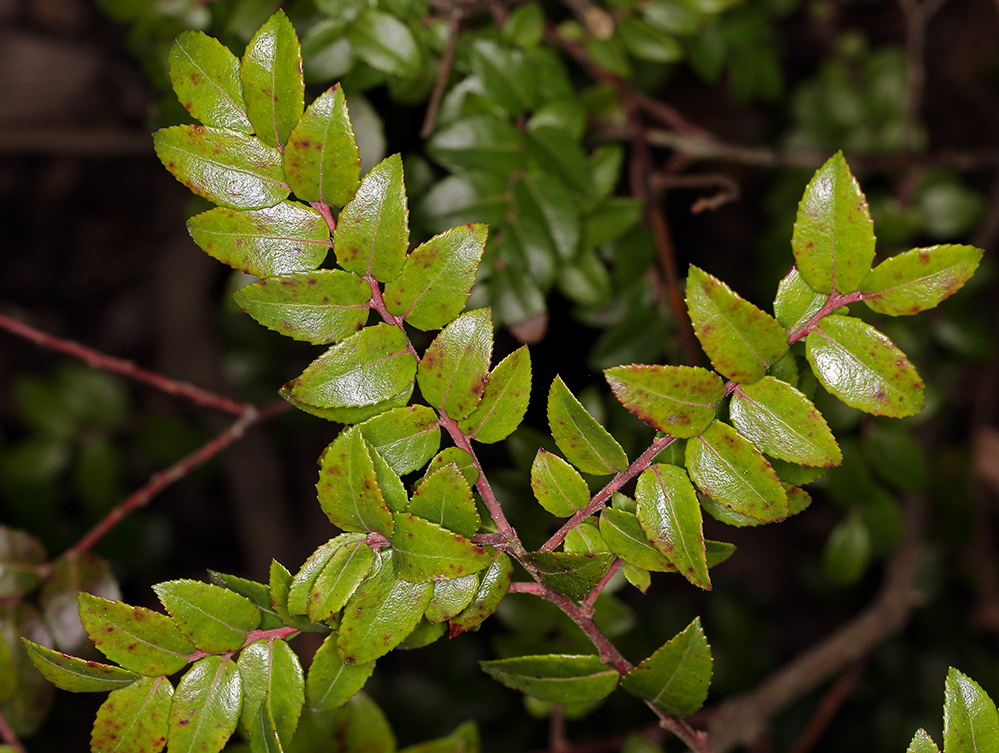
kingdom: Plantae
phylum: Tracheophyta
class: Magnoliopsida
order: Ericales
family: Ericaceae
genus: Vaccinium
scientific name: Vaccinium ovatum
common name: California-huckleberry
